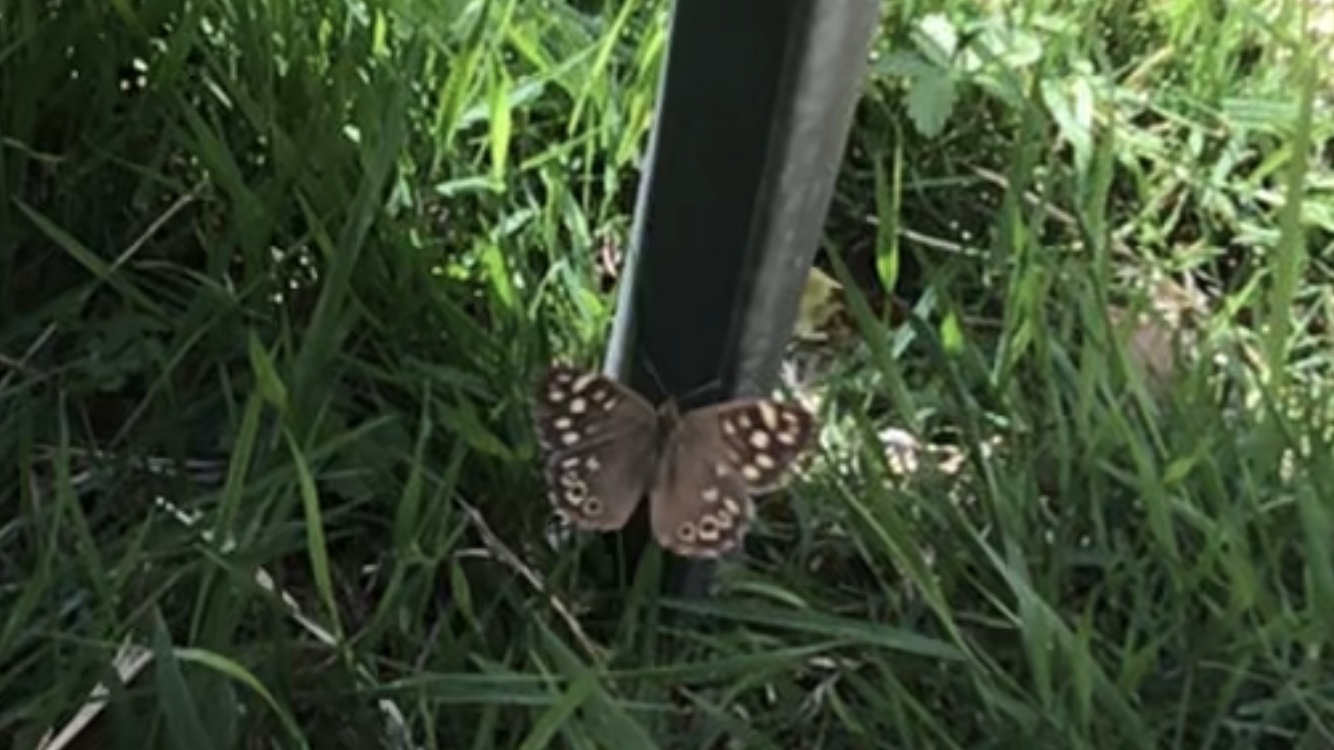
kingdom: Animalia
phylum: Arthropoda
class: Insecta
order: Lepidoptera
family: Nymphalidae
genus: Pararge
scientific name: Pararge aegeria
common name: Speckled wood
